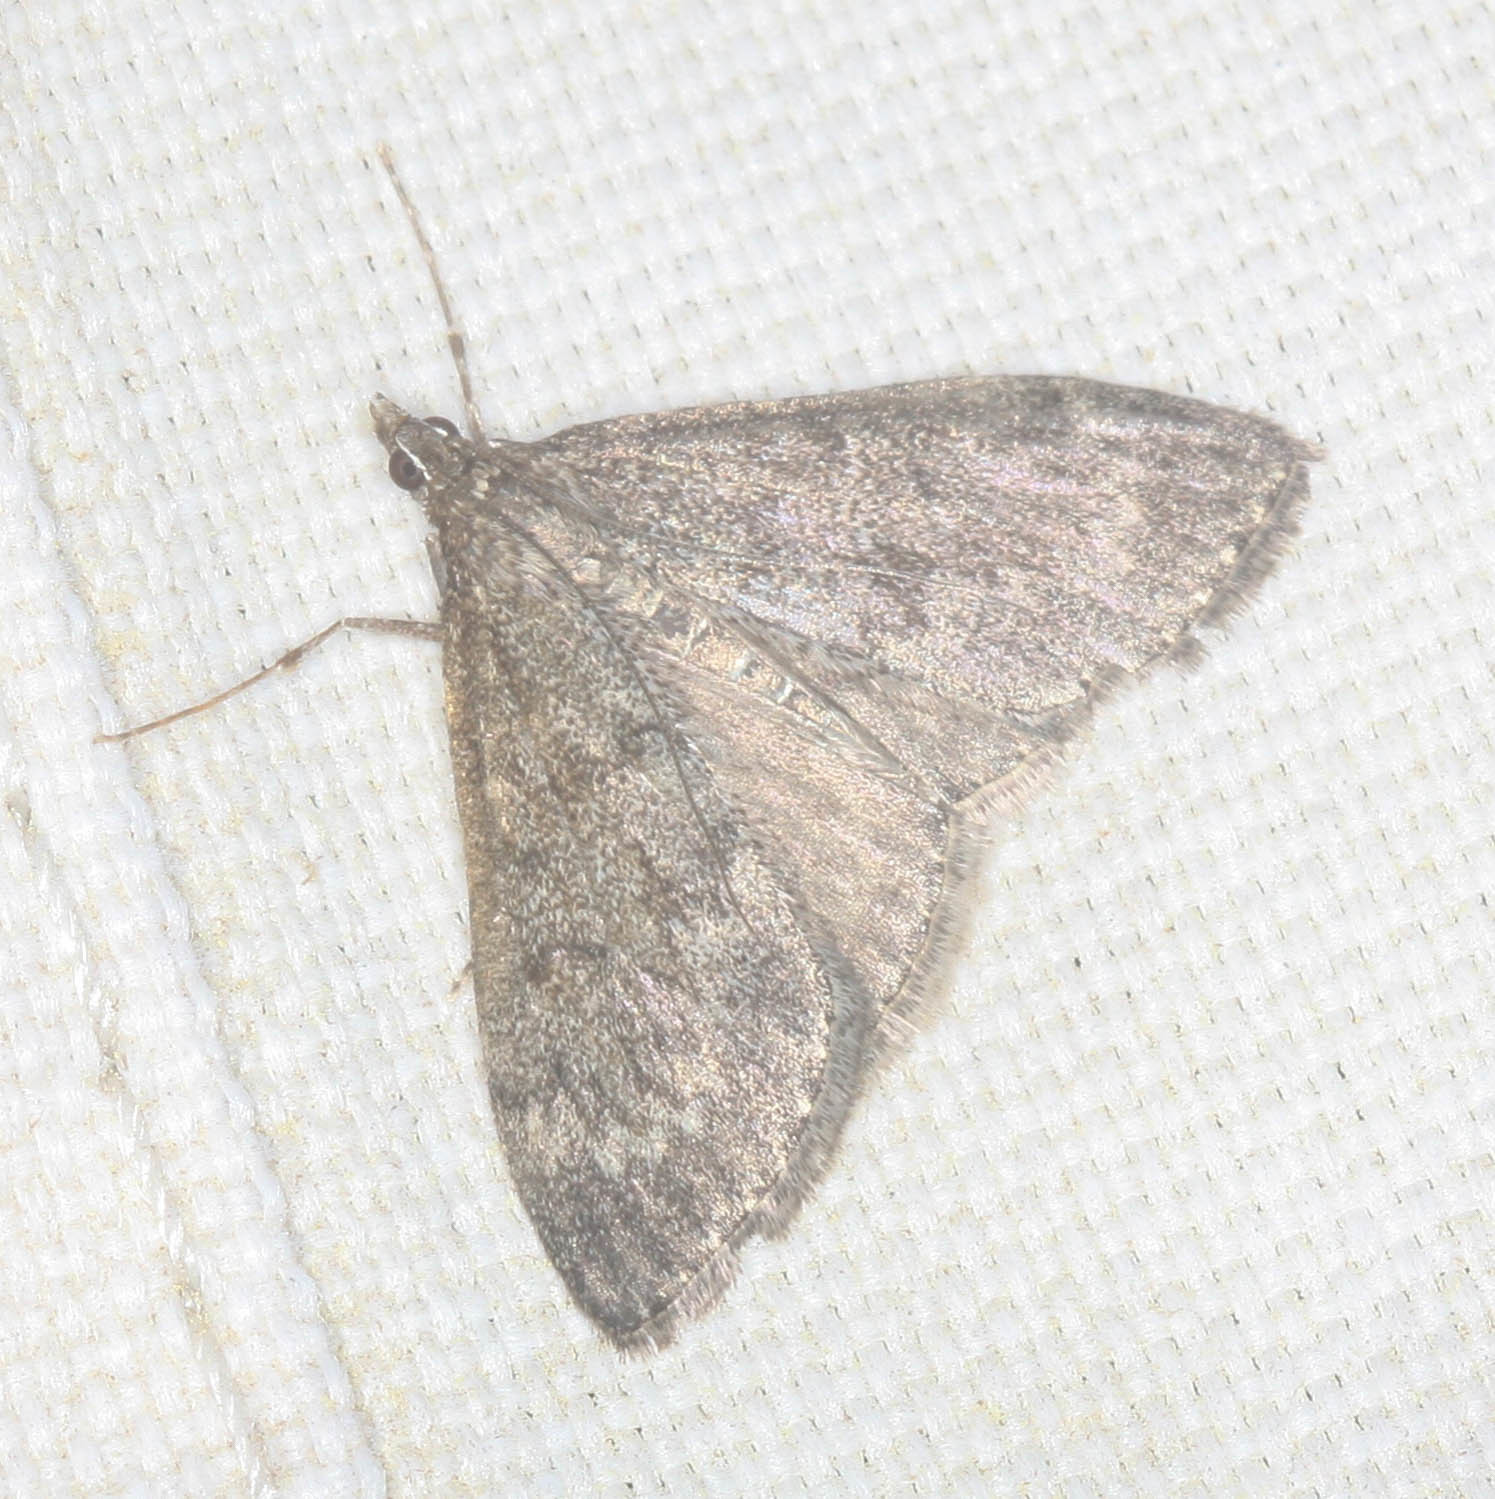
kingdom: Animalia
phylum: Arthropoda
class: Insecta
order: Lepidoptera
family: Crambidae
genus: Saucrobotys
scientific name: Saucrobotys fumoferalis
